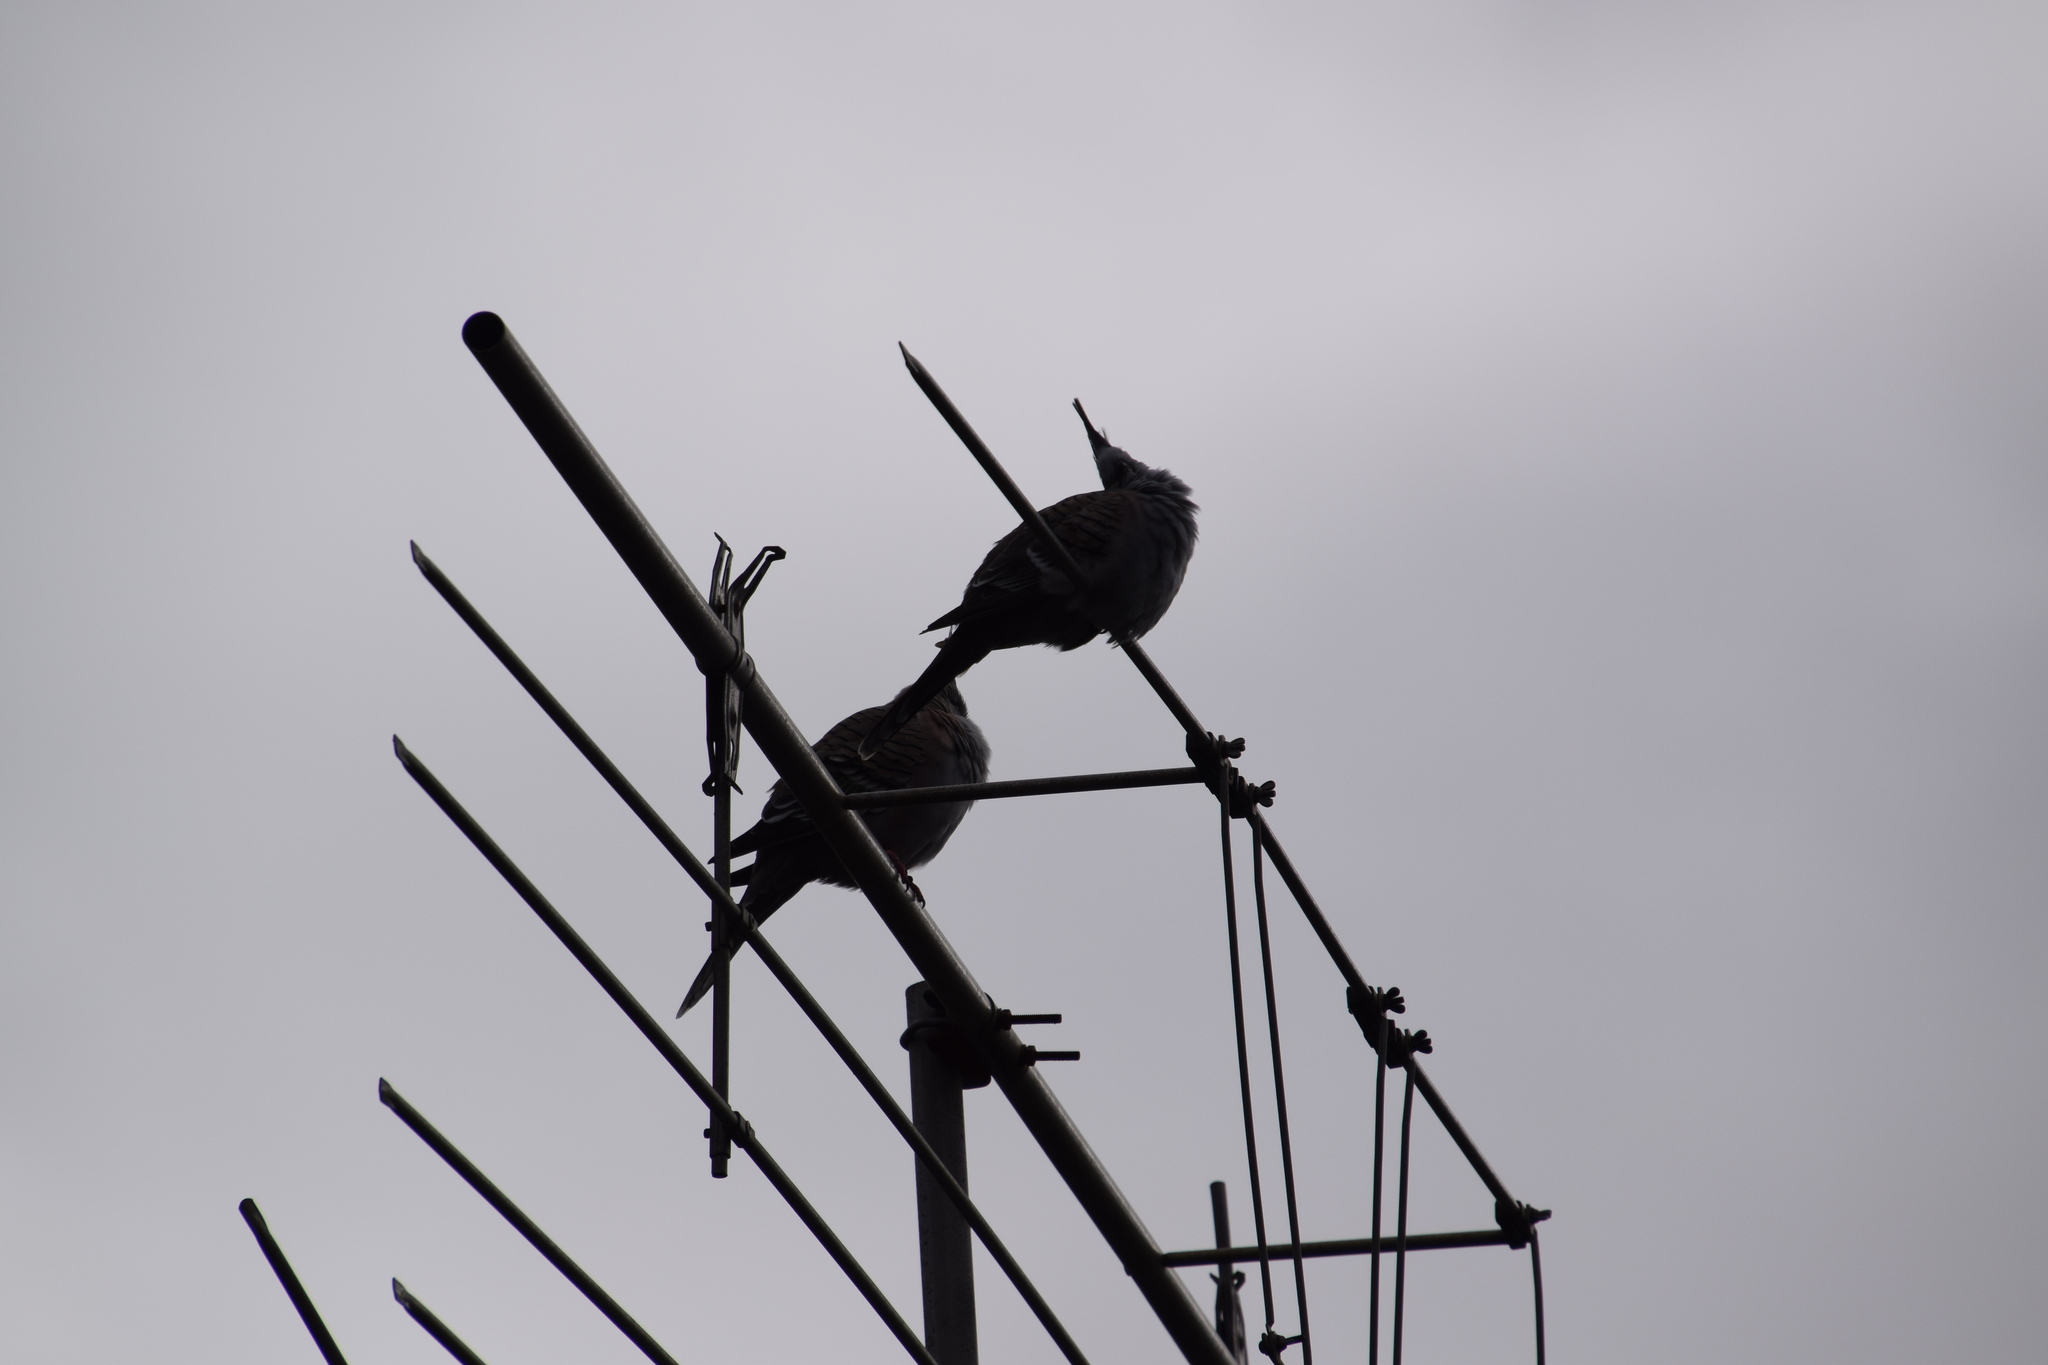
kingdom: Animalia
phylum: Chordata
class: Aves
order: Columbiformes
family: Columbidae
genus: Ocyphaps
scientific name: Ocyphaps lophotes
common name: Crested pigeon
